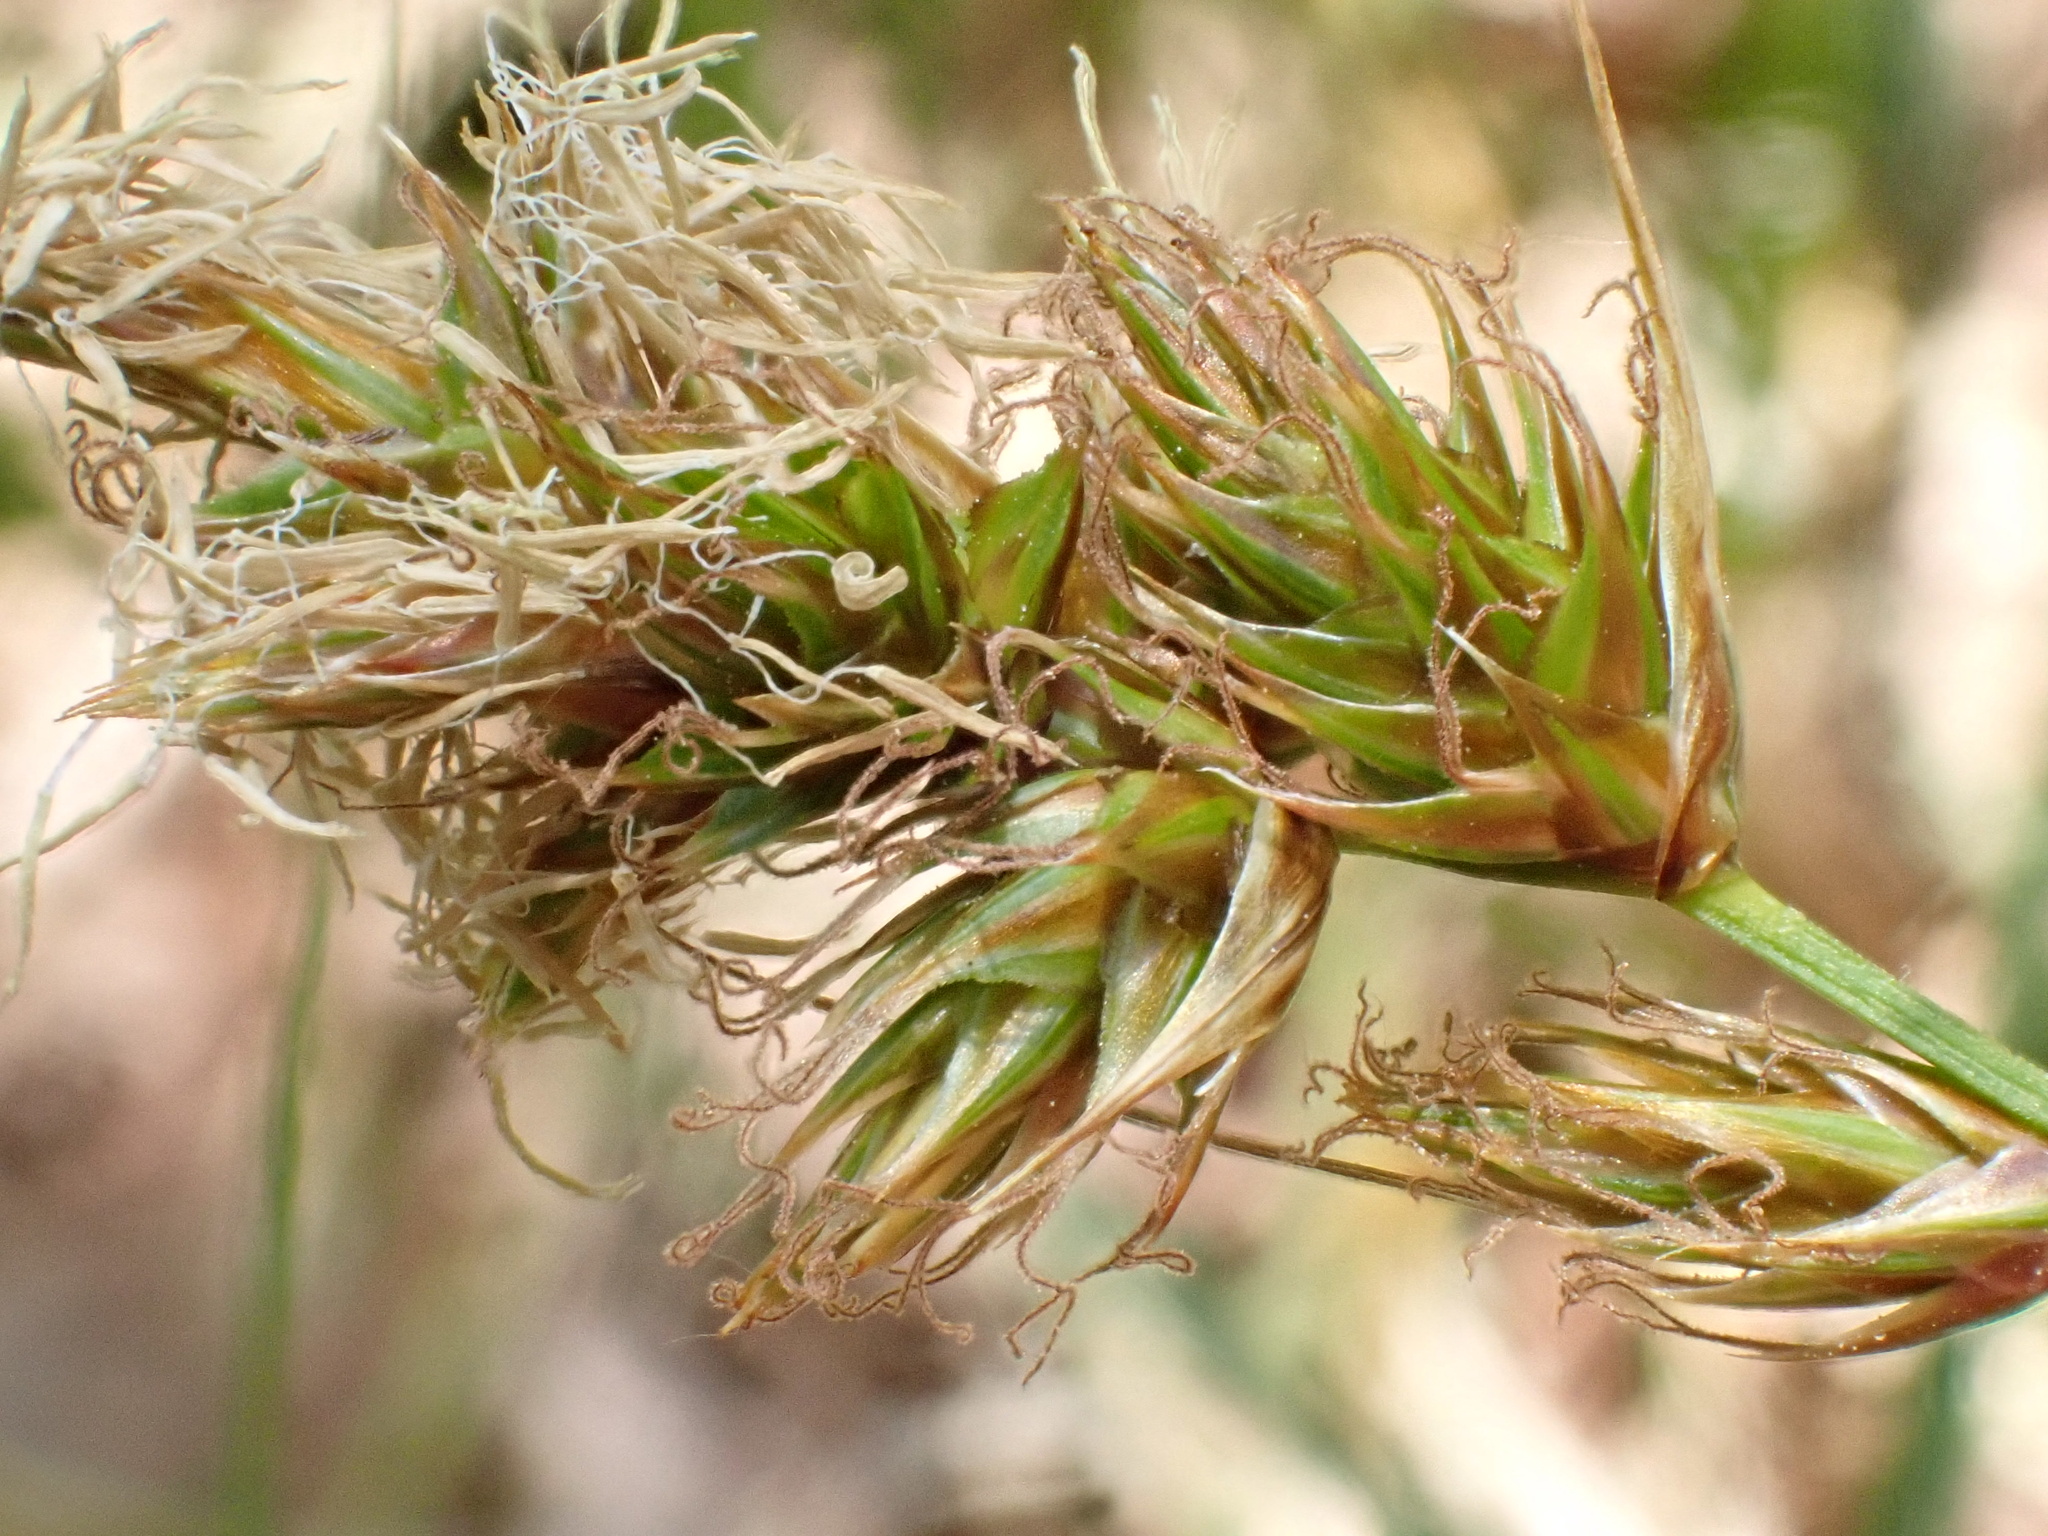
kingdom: Plantae
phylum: Tracheophyta
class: Liliopsida
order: Poales
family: Cyperaceae
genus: Carex
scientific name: Carex arenaria
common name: Sand sedge
